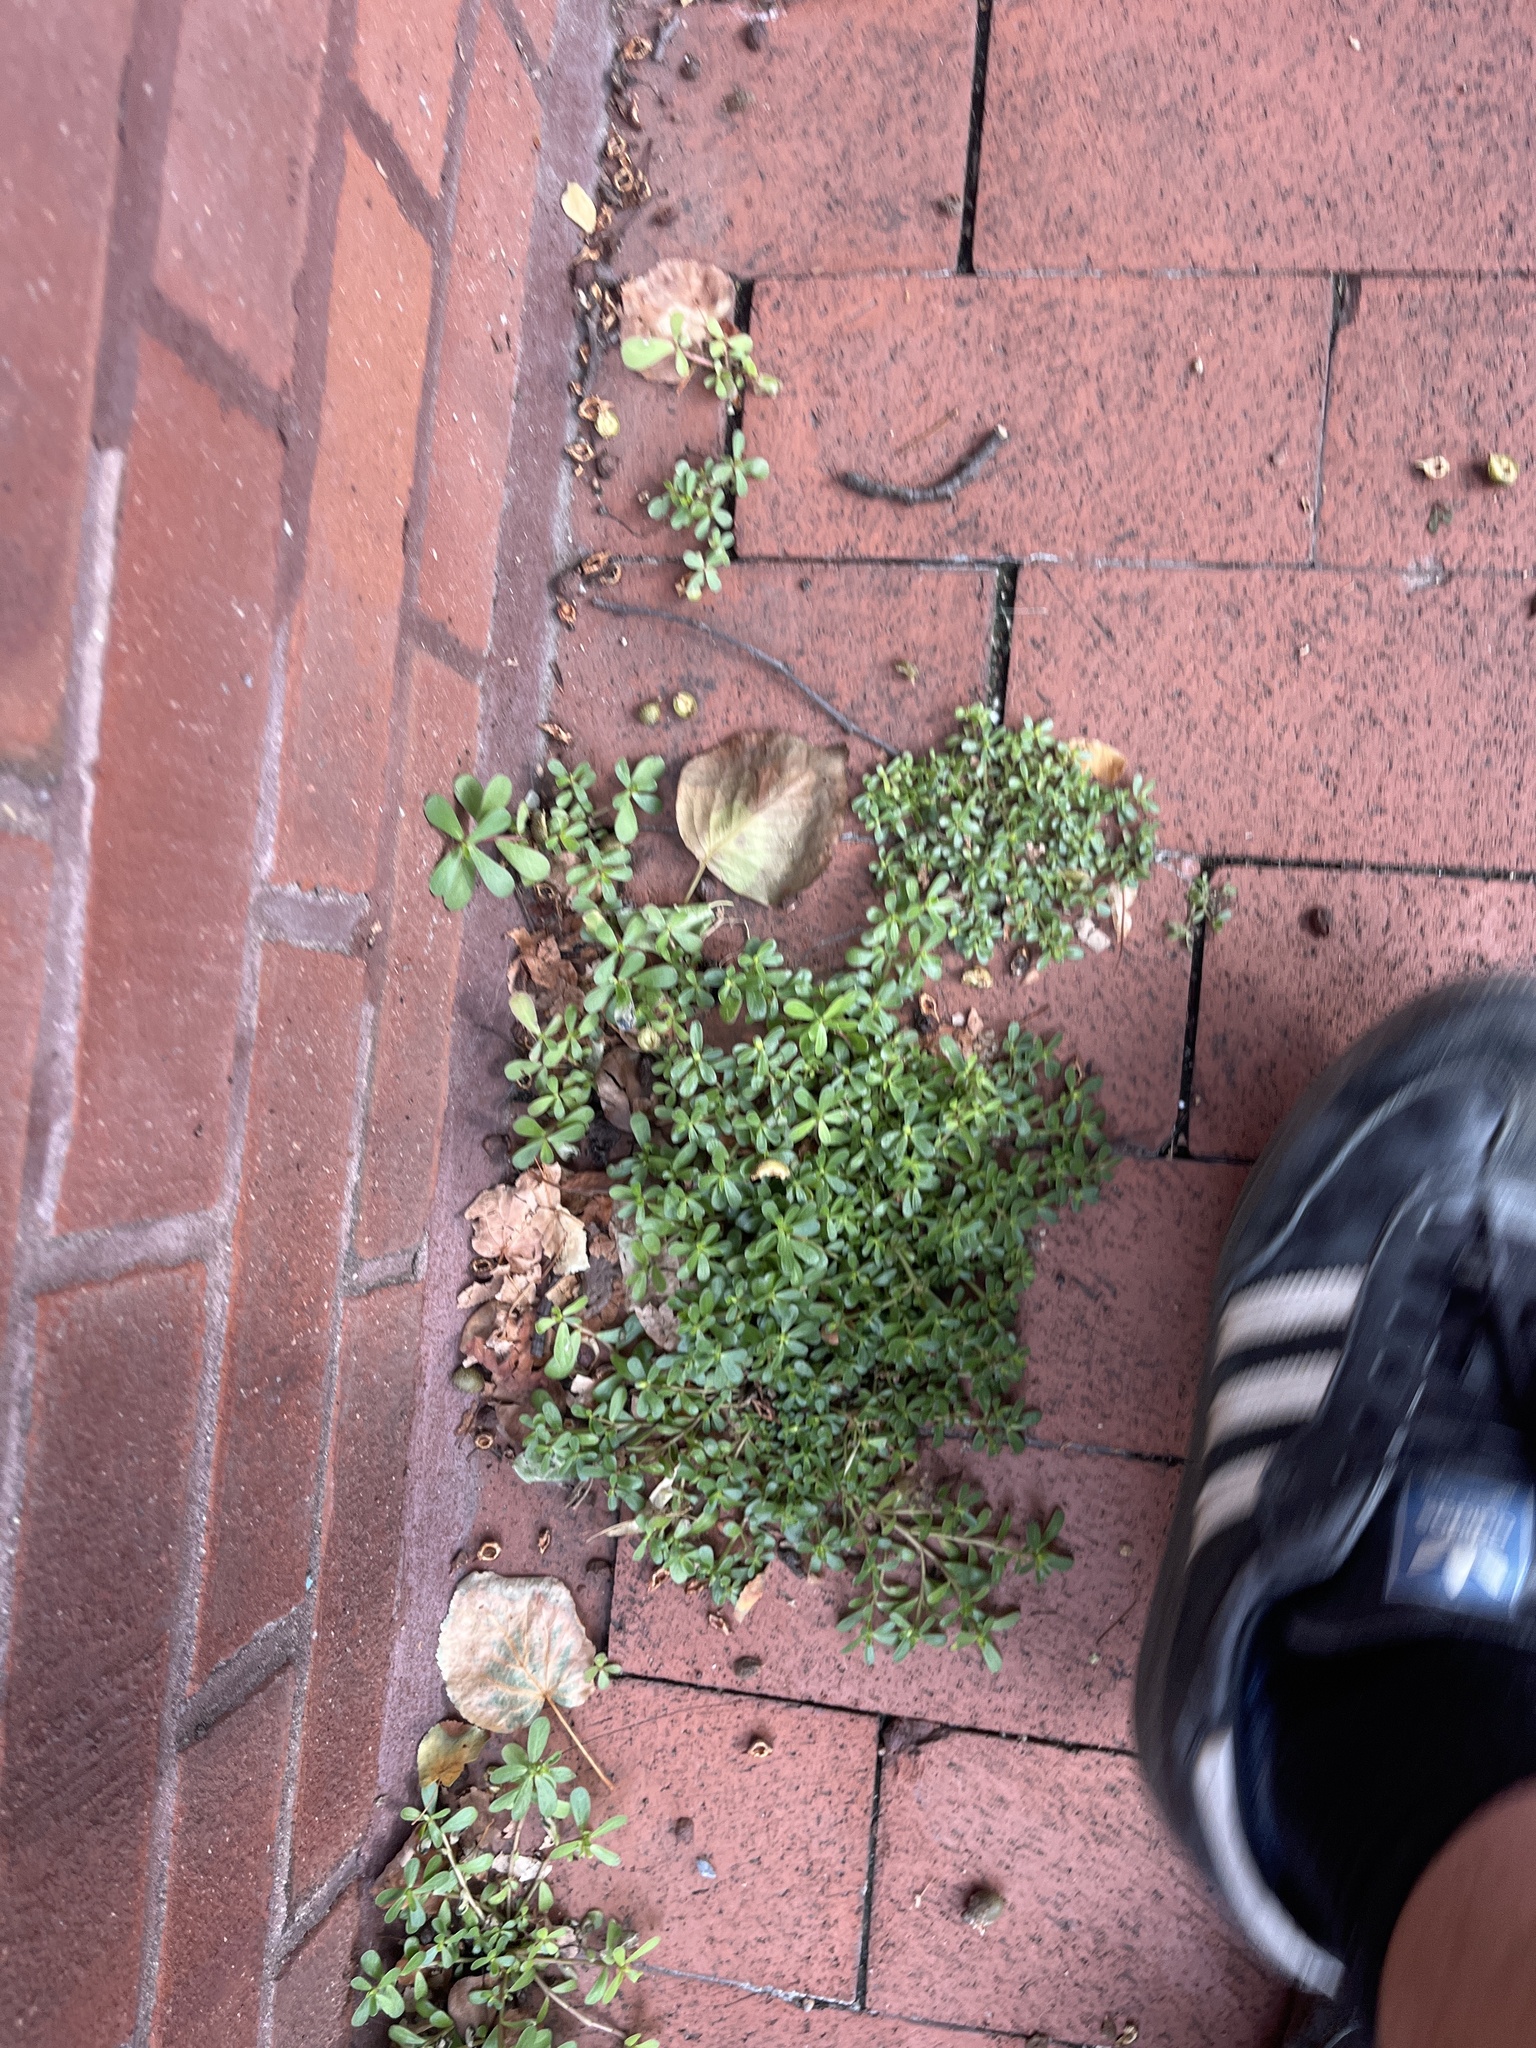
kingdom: Plantae
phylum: Tracheophyta
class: Magnoliopsida
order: Caryophyllales
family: Portulacaceae
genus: Portulaca
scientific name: Portulaca oleracea
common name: Common purslane
